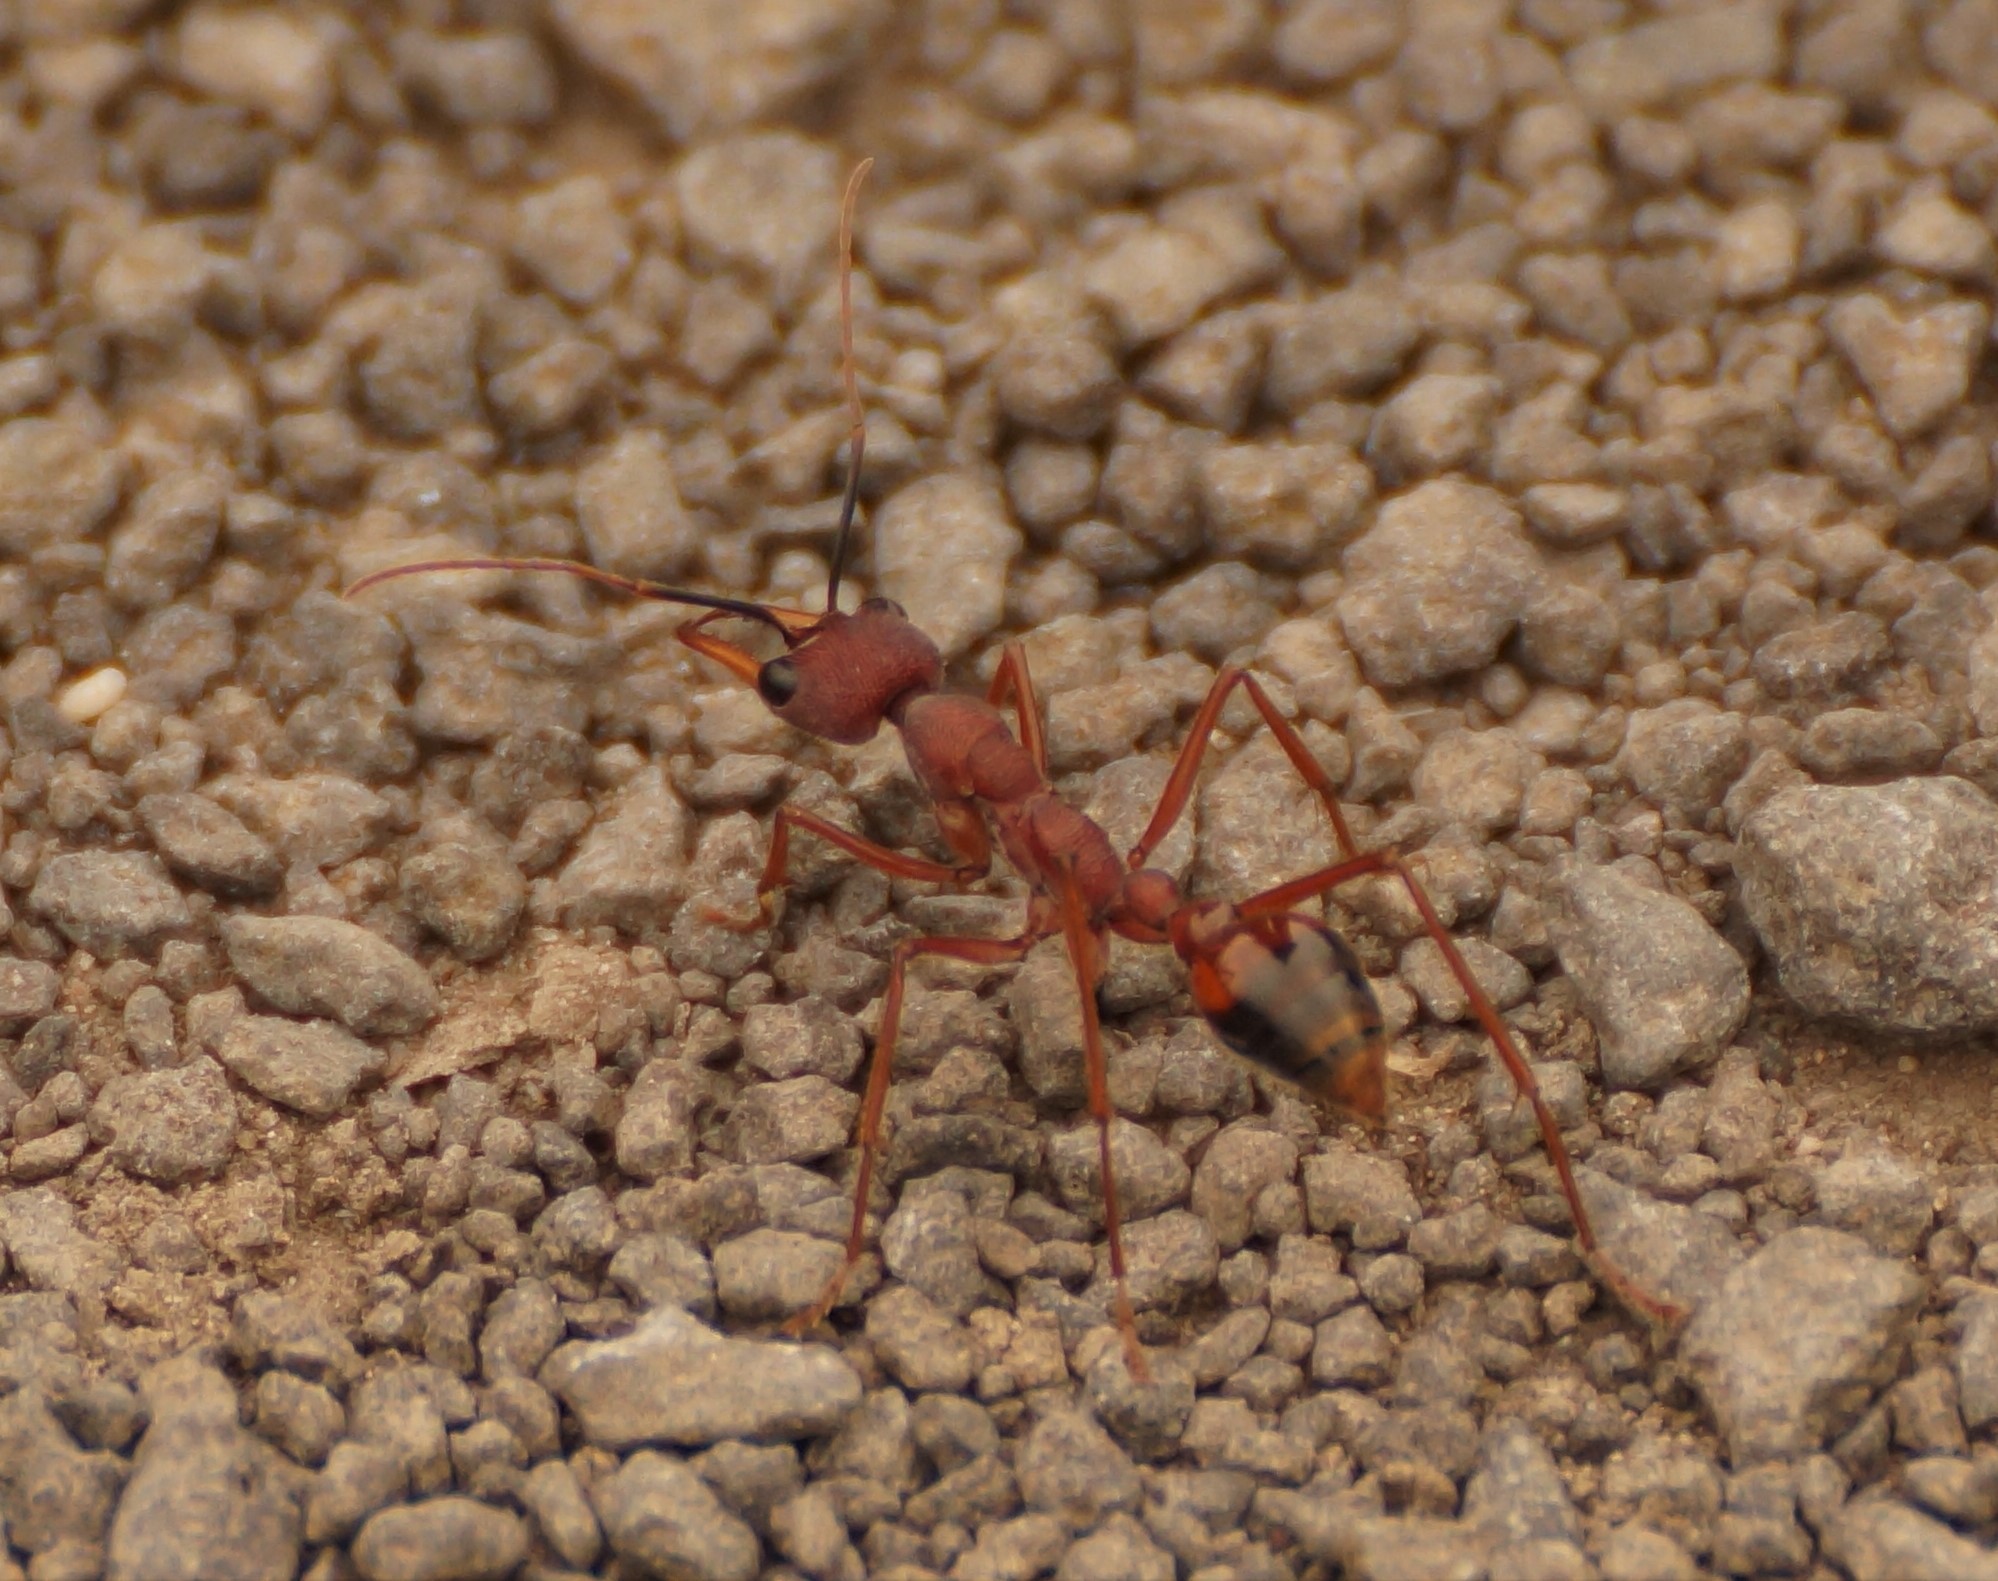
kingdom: Animalia
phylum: Arthropoda
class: Insecta
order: Hymenoptera
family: Formicidae
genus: Myrmecia
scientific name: Myrmecia nigriscapa
